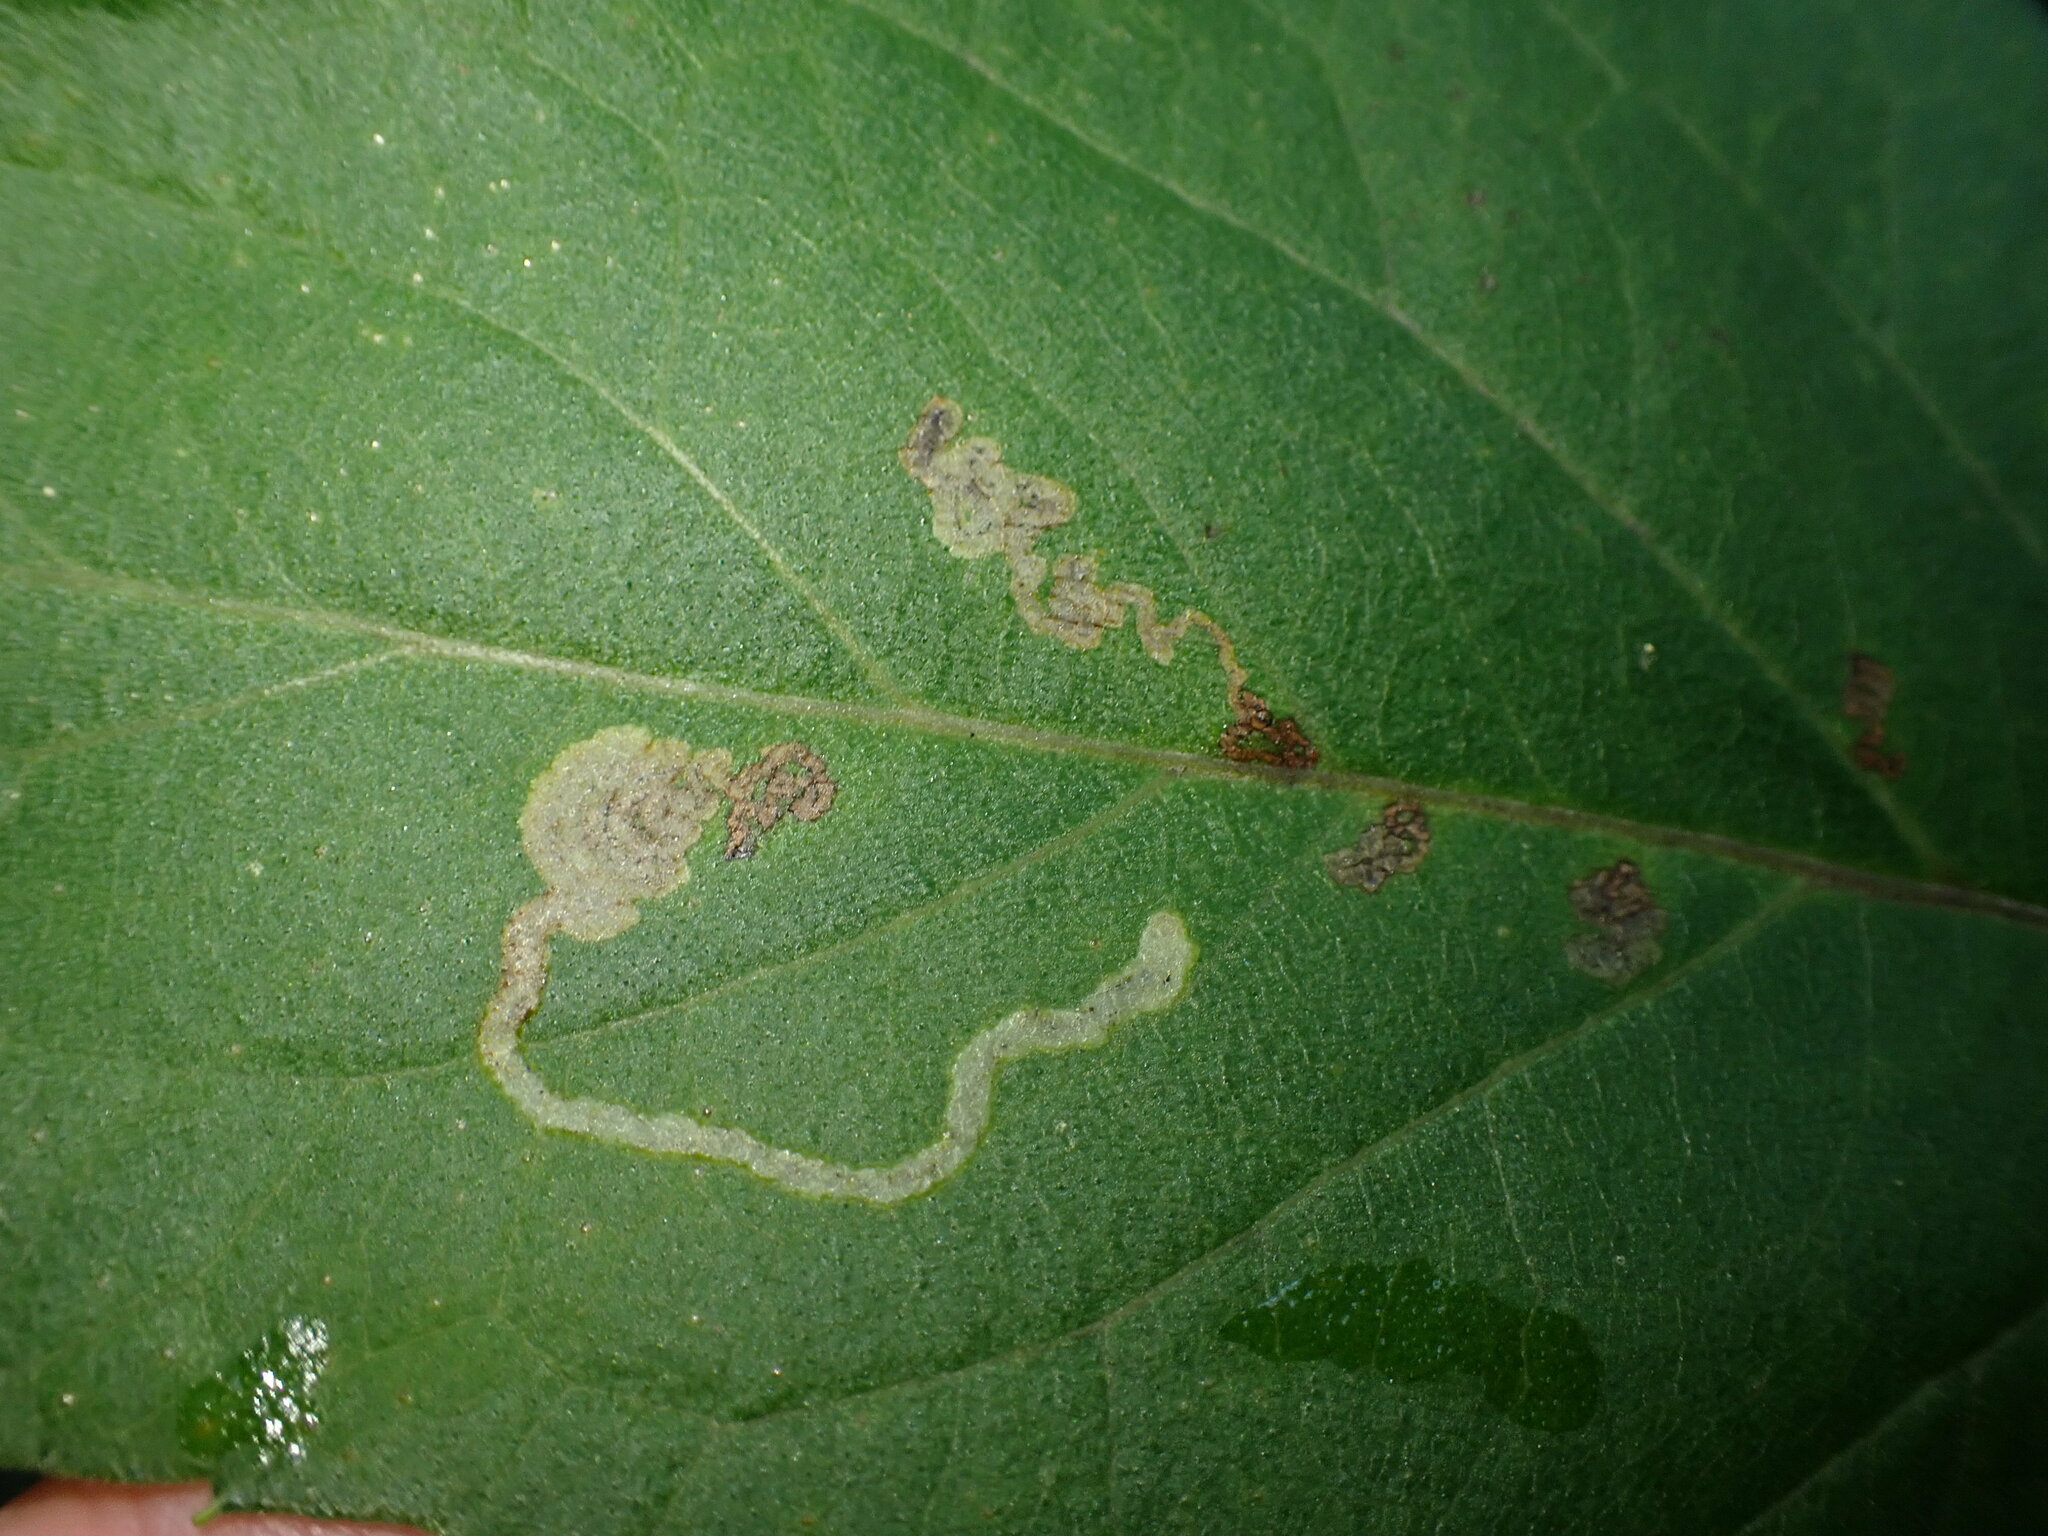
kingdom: Animalia
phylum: Arthropoda
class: Insecta
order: Diptera
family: Agromyzidae
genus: Liriomyza
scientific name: Liriomyza ivorcutleri
